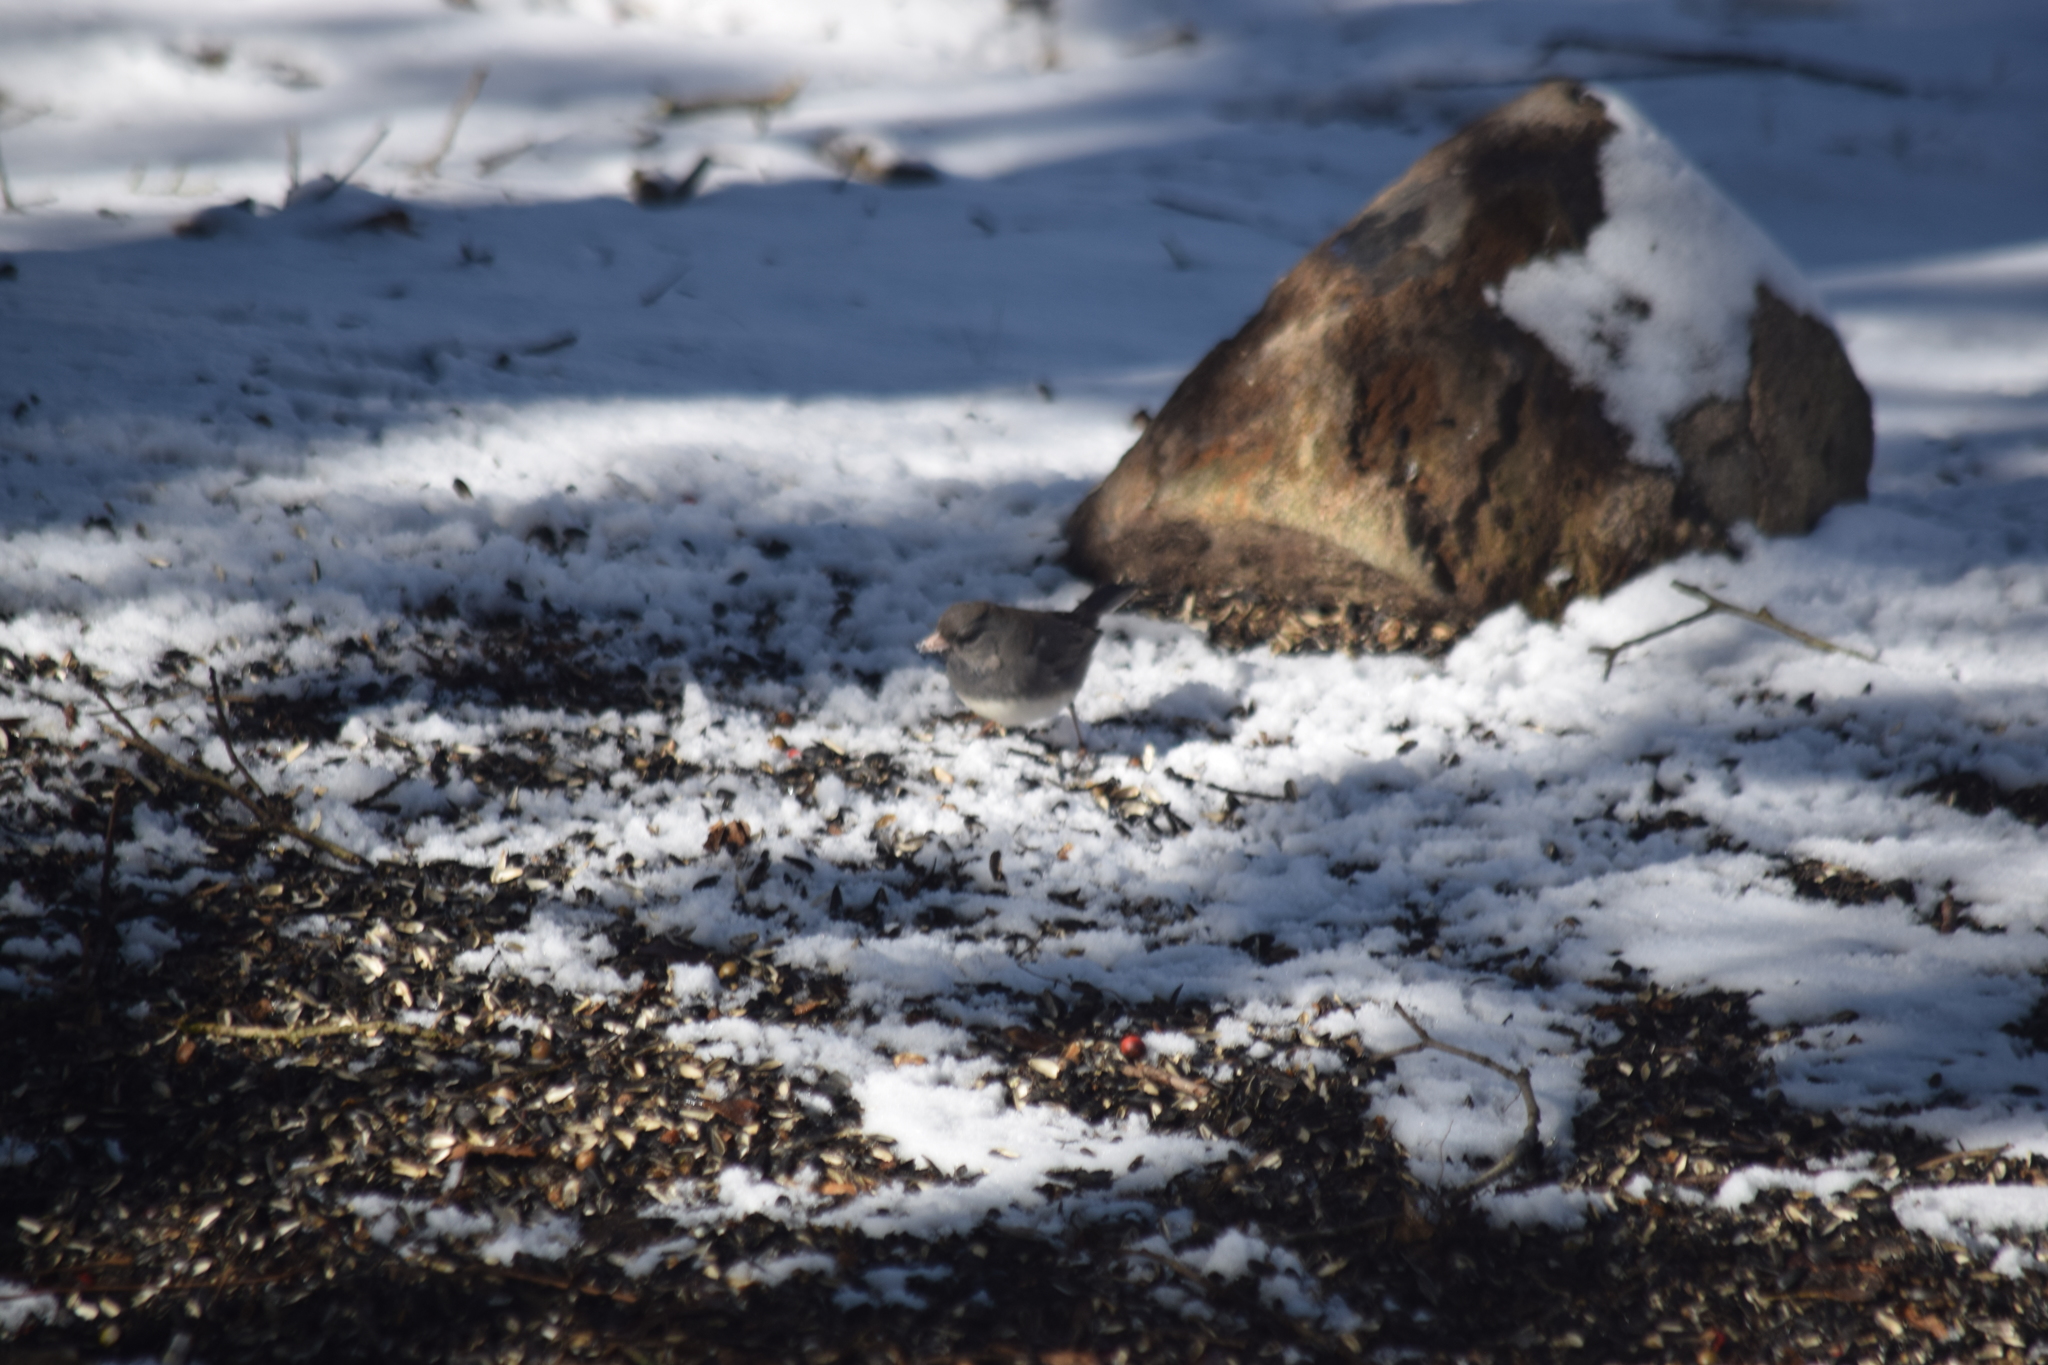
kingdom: Animalia
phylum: Chordata
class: Aves
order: Passeriformes
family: Passerellidae
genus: Junco
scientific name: Junco hyemalis
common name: Dark-eyed junco
